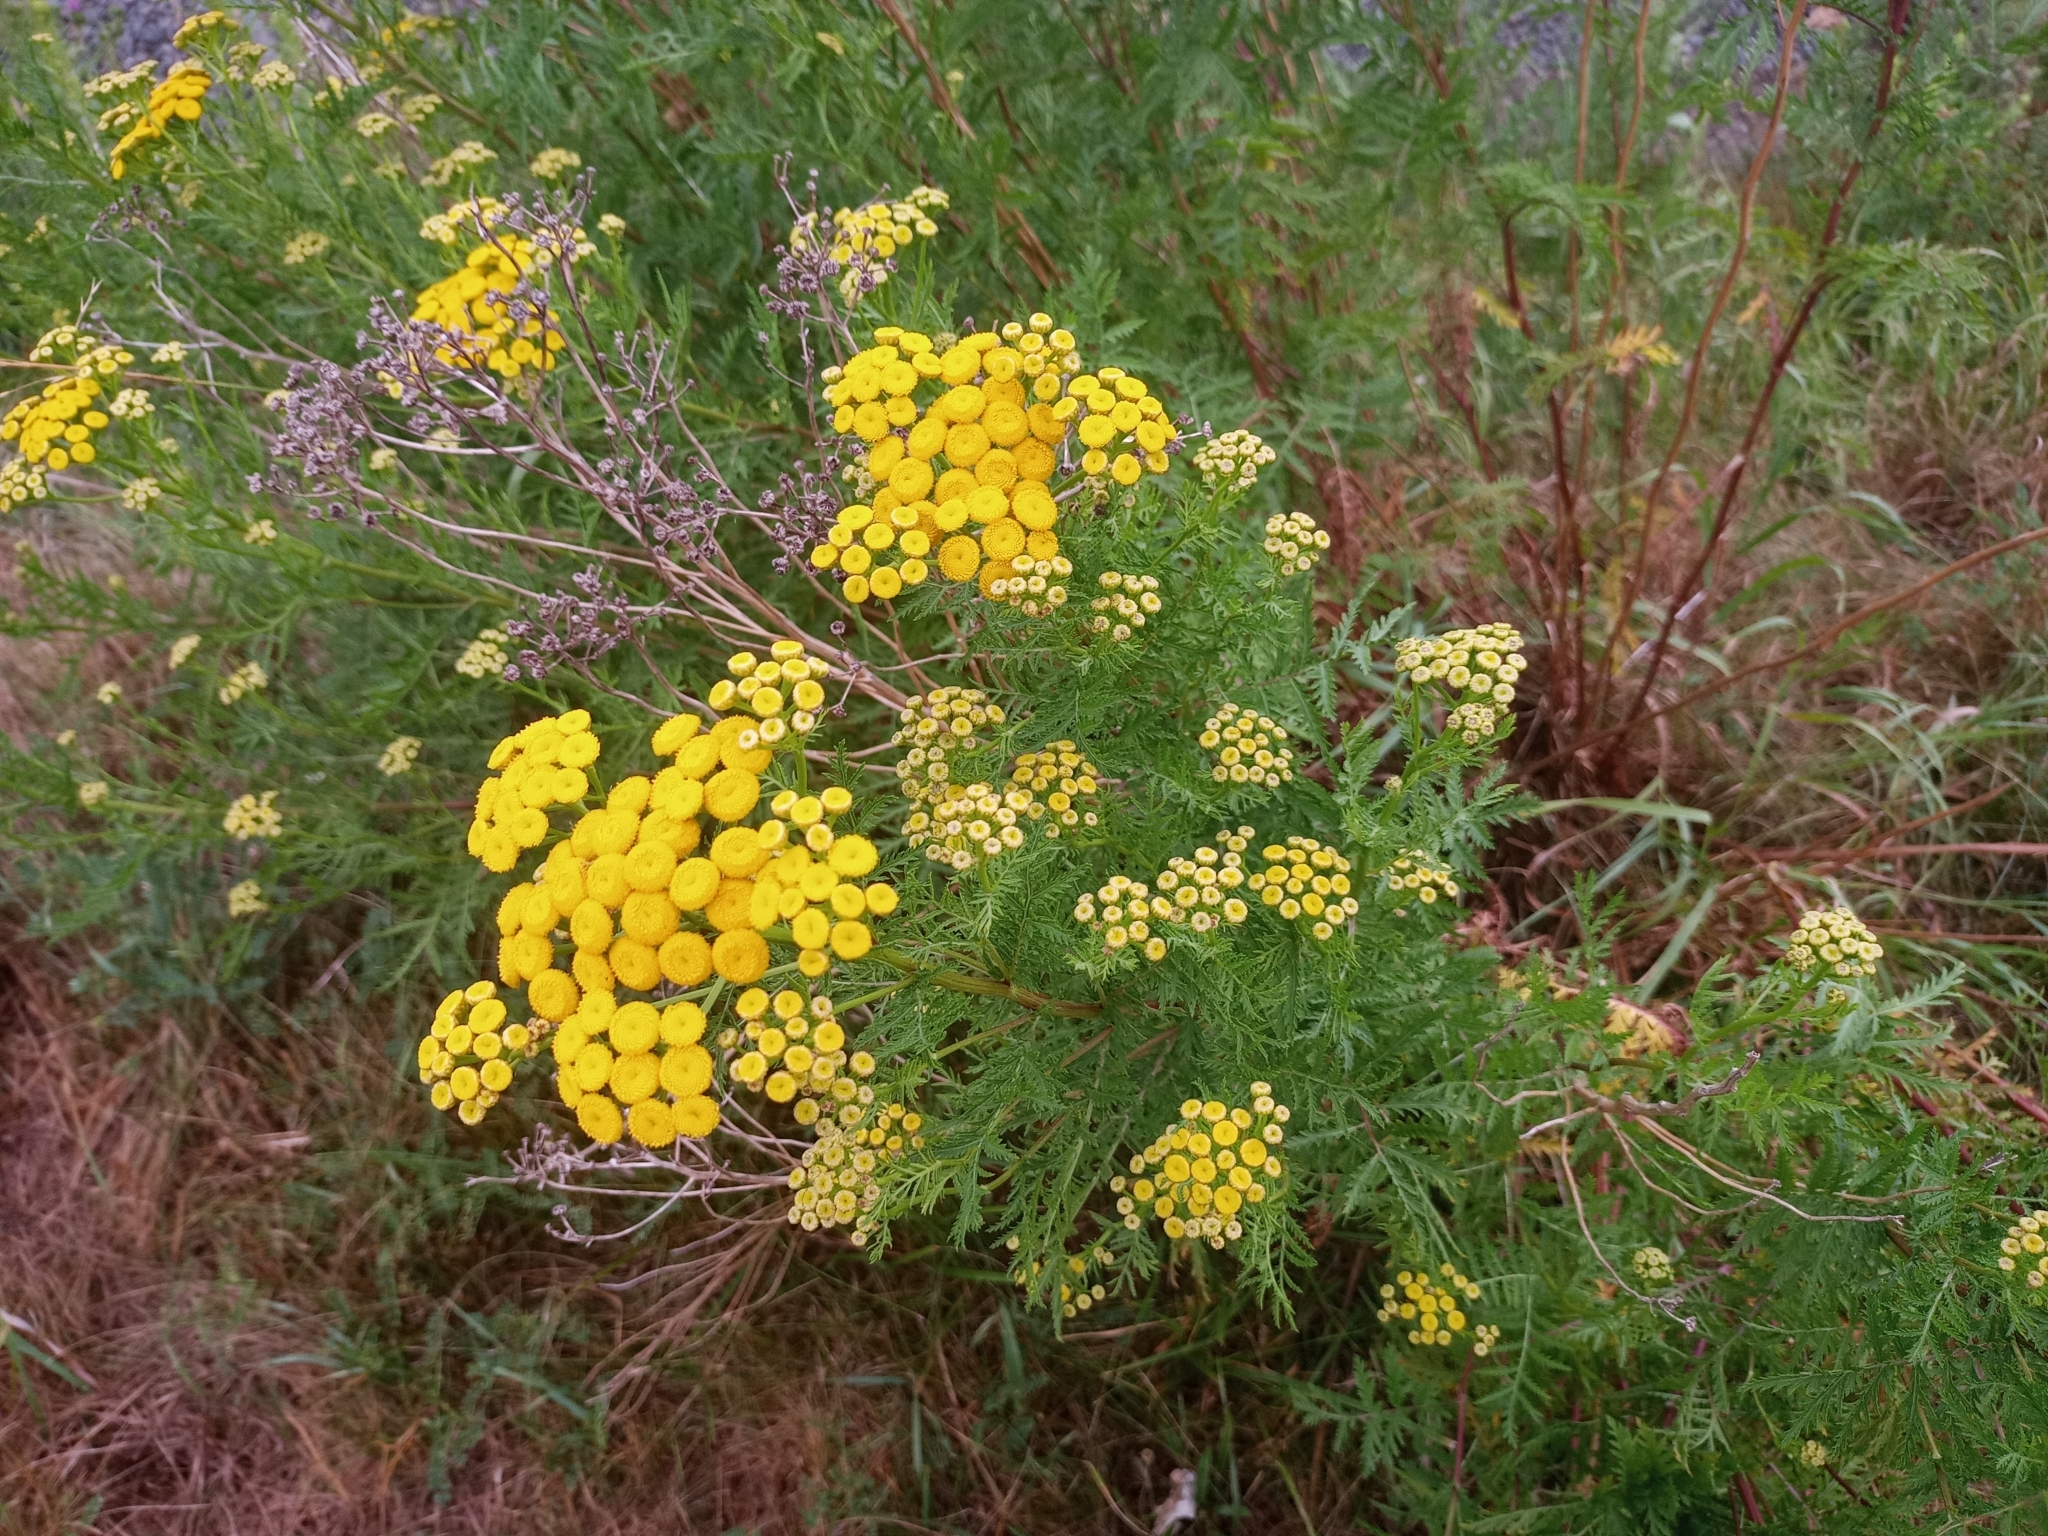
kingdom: Plantae
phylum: Tracheophyta
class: Magnoliopsida
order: Asterales
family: Asteraceae
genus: Tanacetum
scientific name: Tanacetum vulgare
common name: Common tansy
